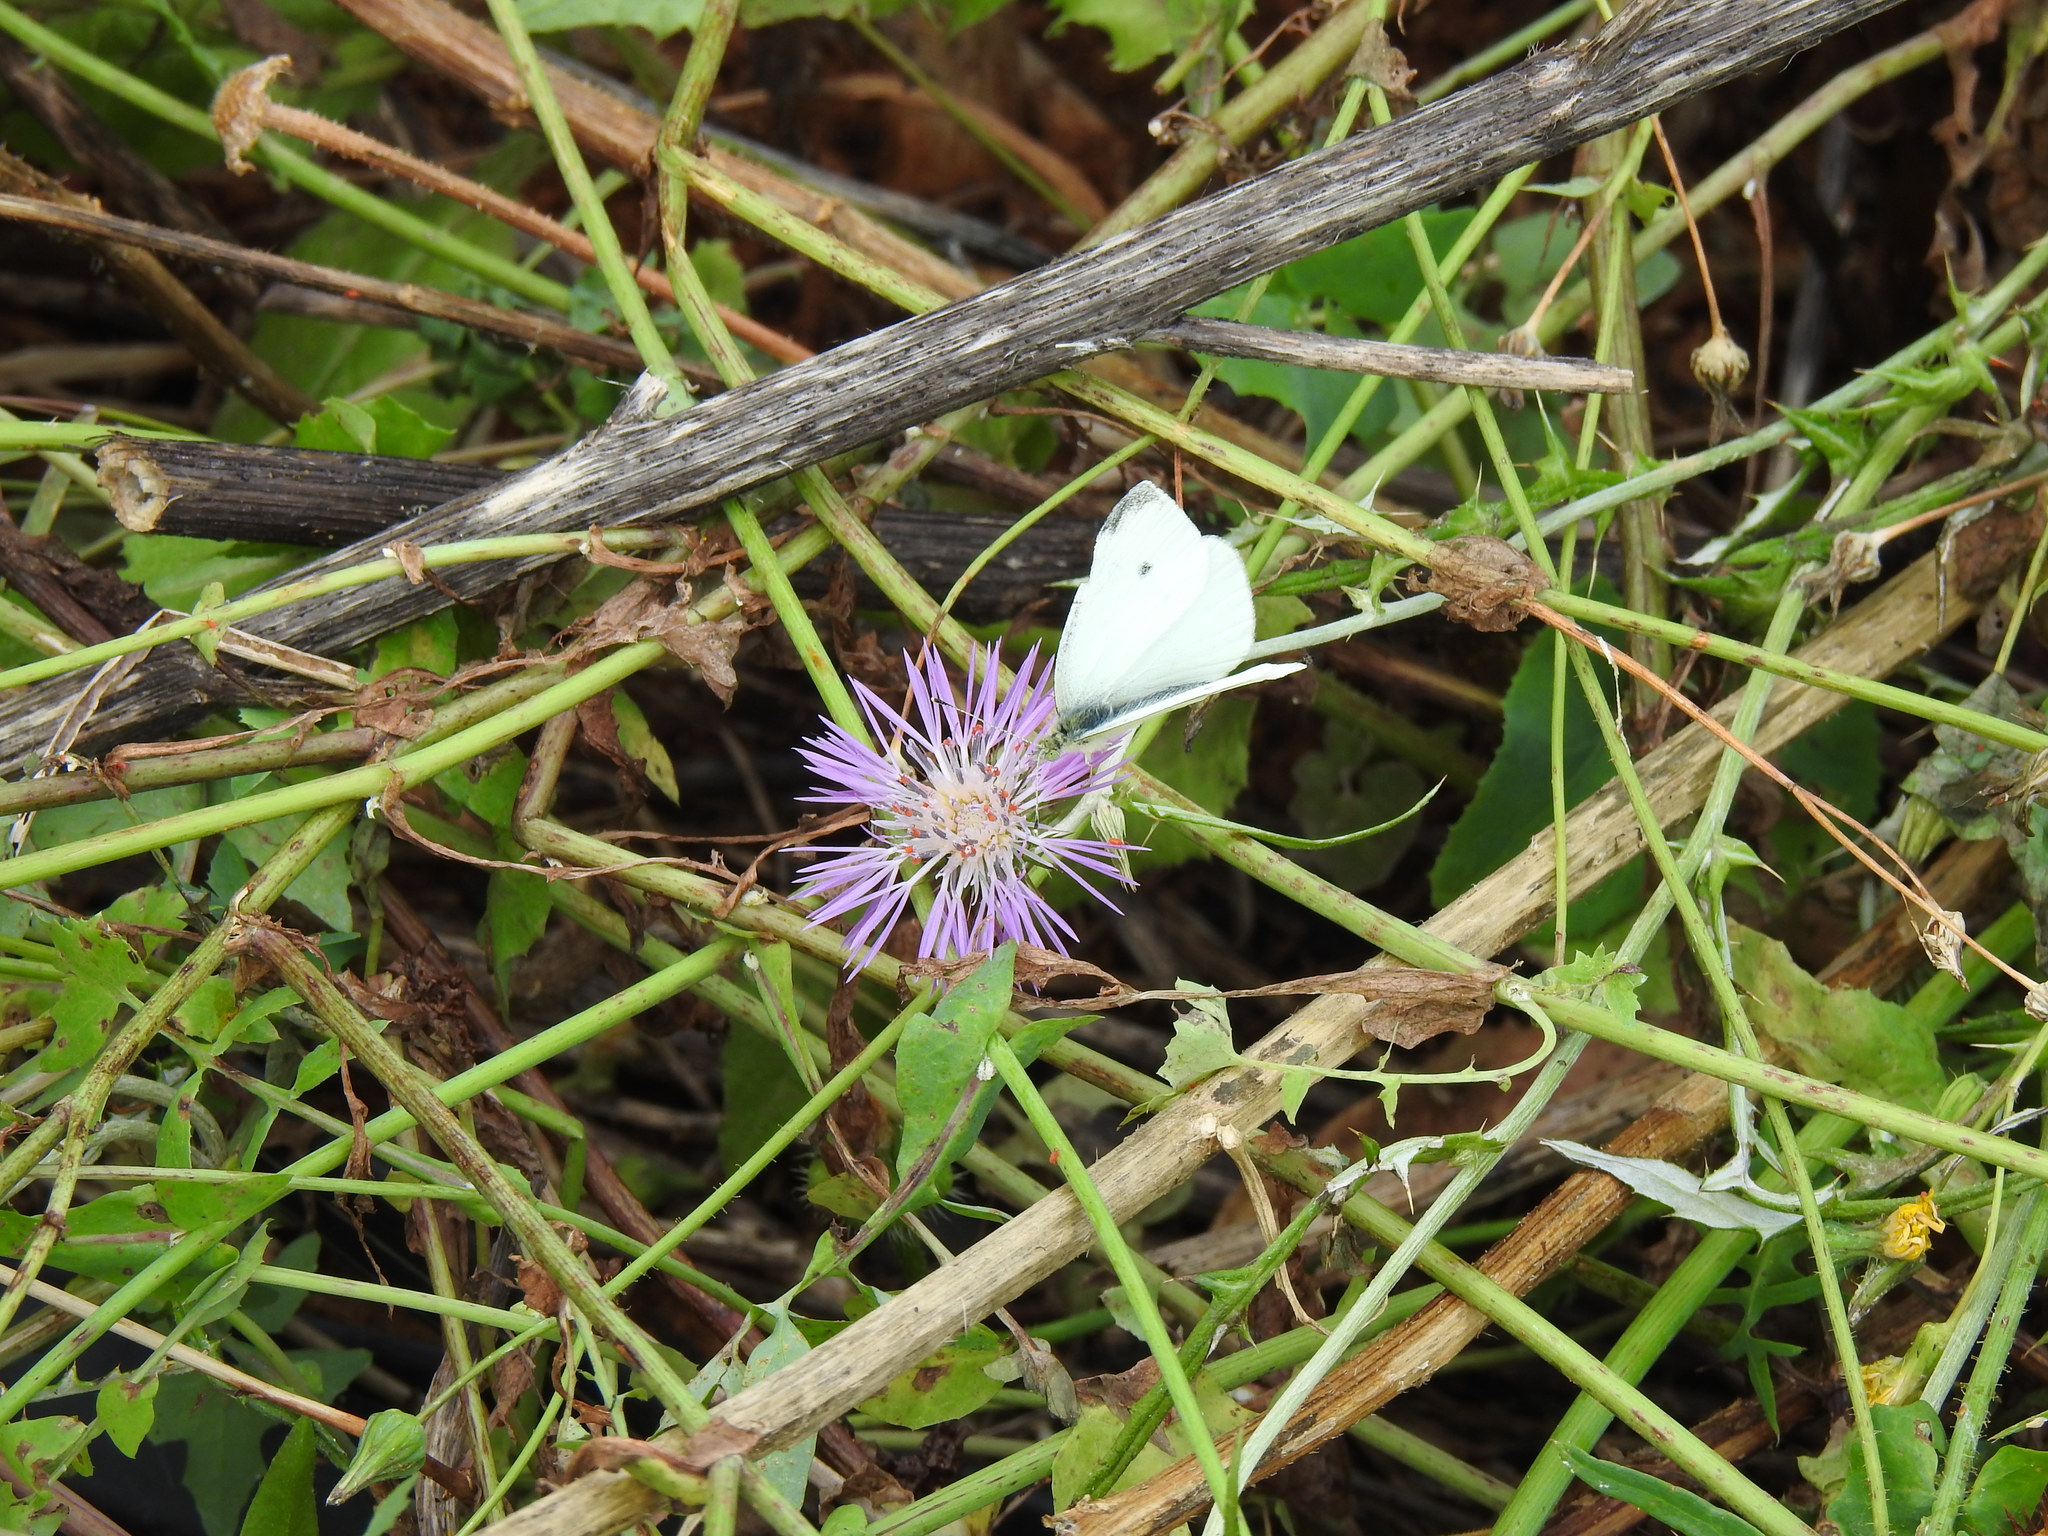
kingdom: Animalia
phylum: Arthropoda
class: Insecta
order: Lepidoptera
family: Pieridae
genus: Pieris
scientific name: Pieris rapae
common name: Small white
